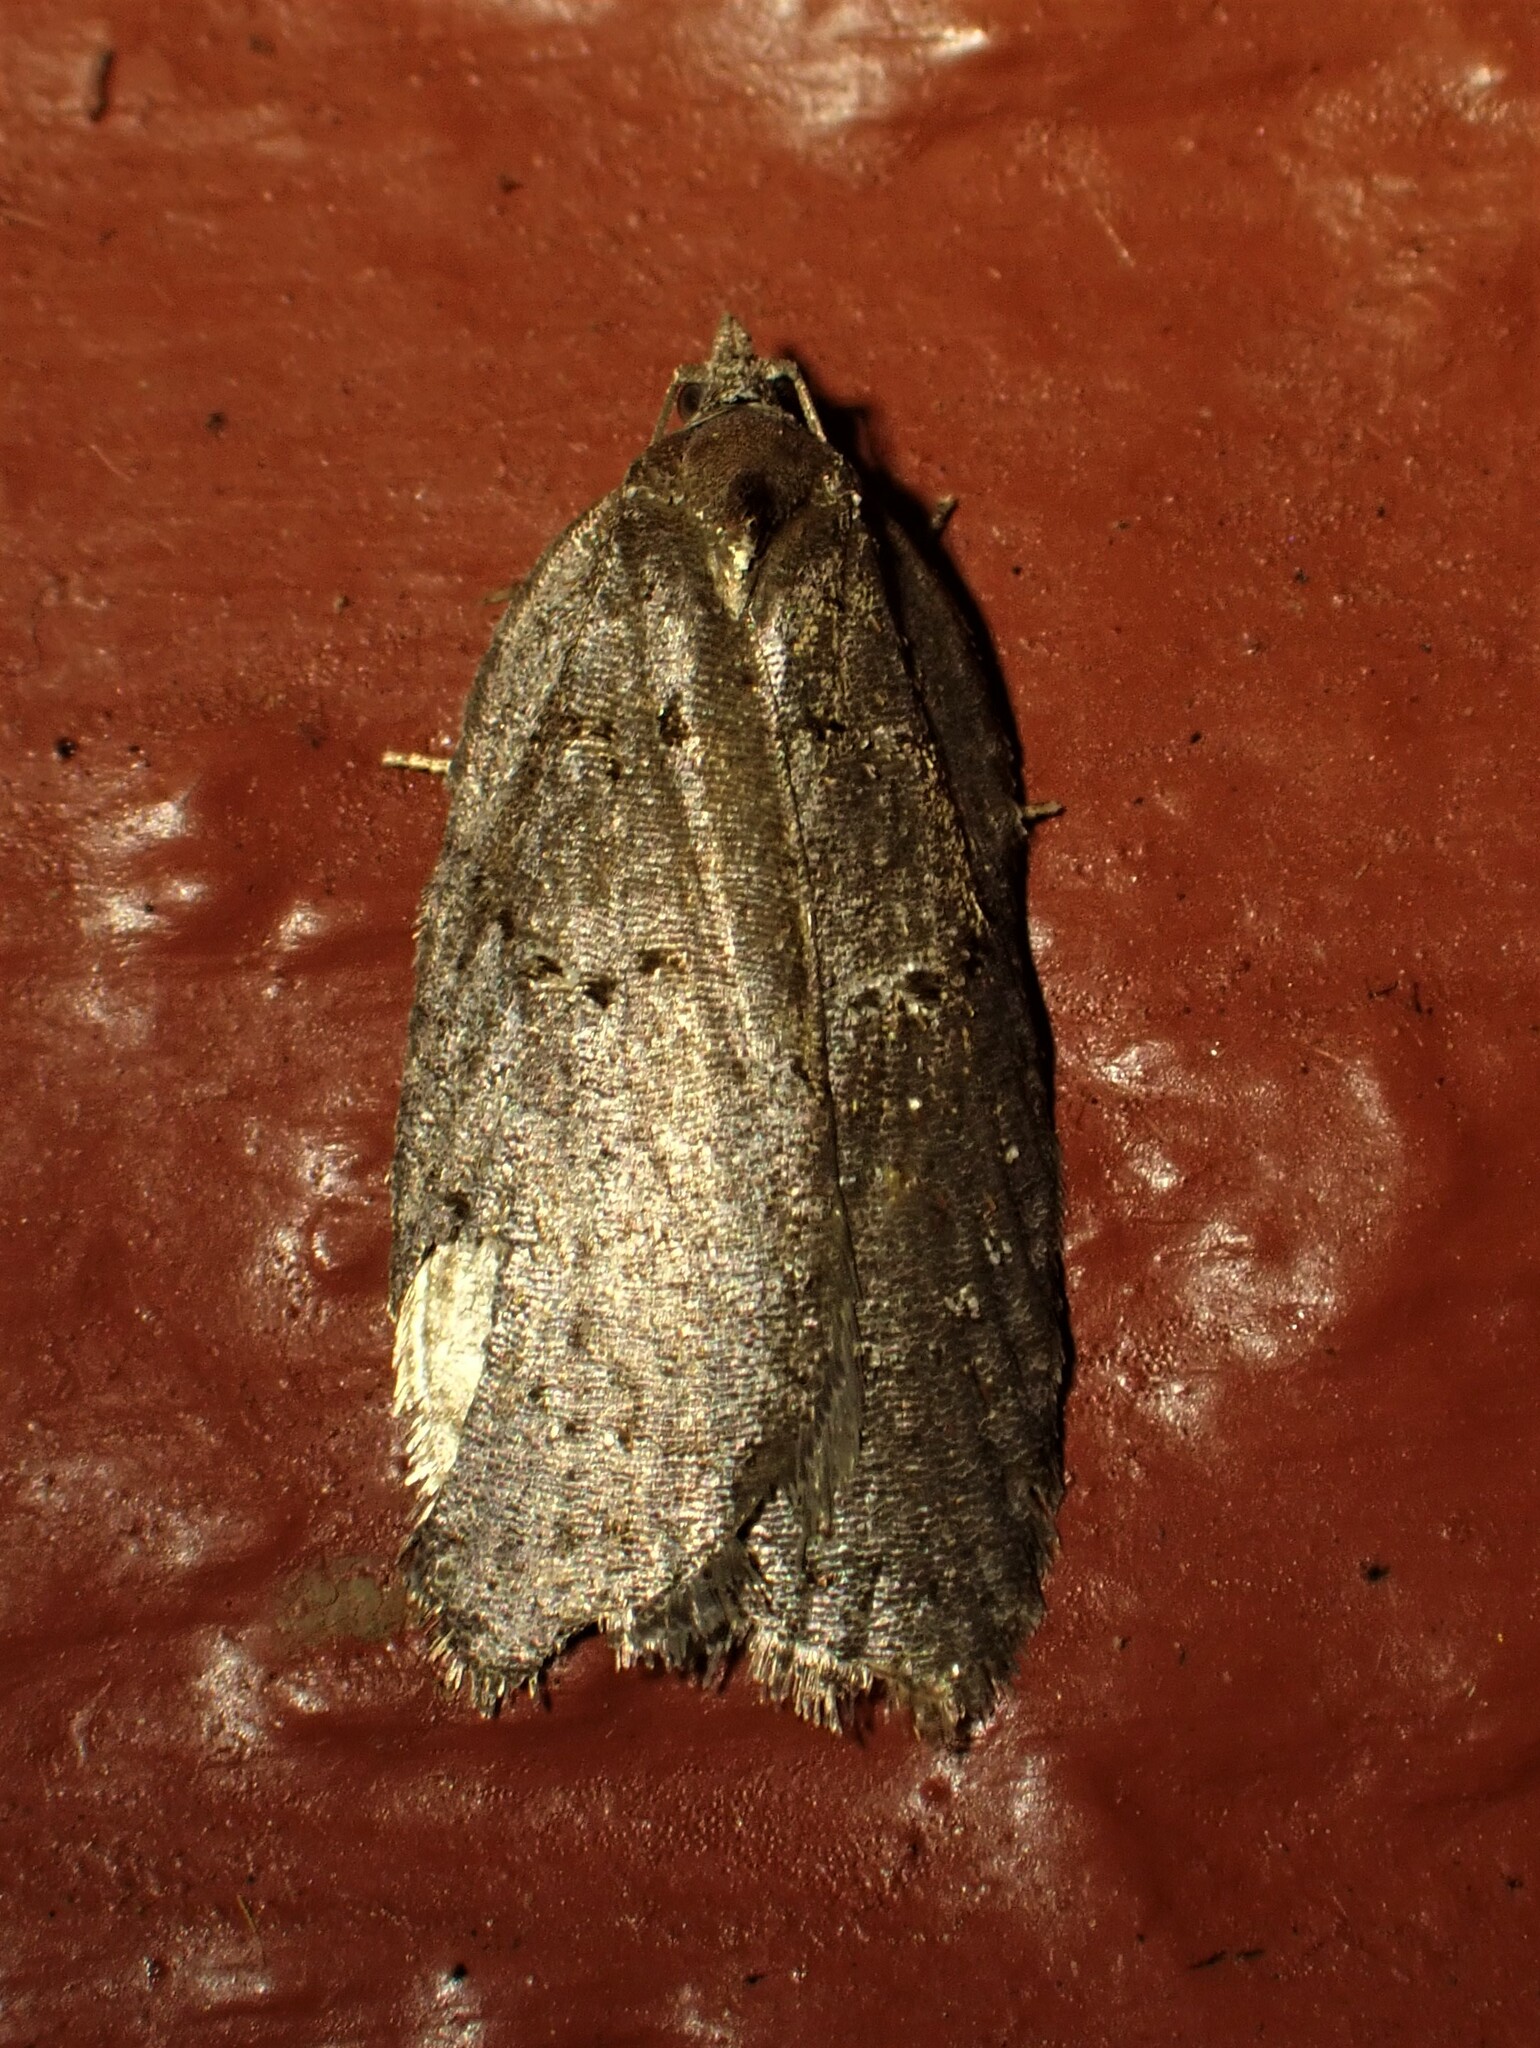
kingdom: Animalia
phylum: Arthropoda
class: Insecta
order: Lepidoptera
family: Tortricidae
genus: Acleris
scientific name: Acleris caliginosana
